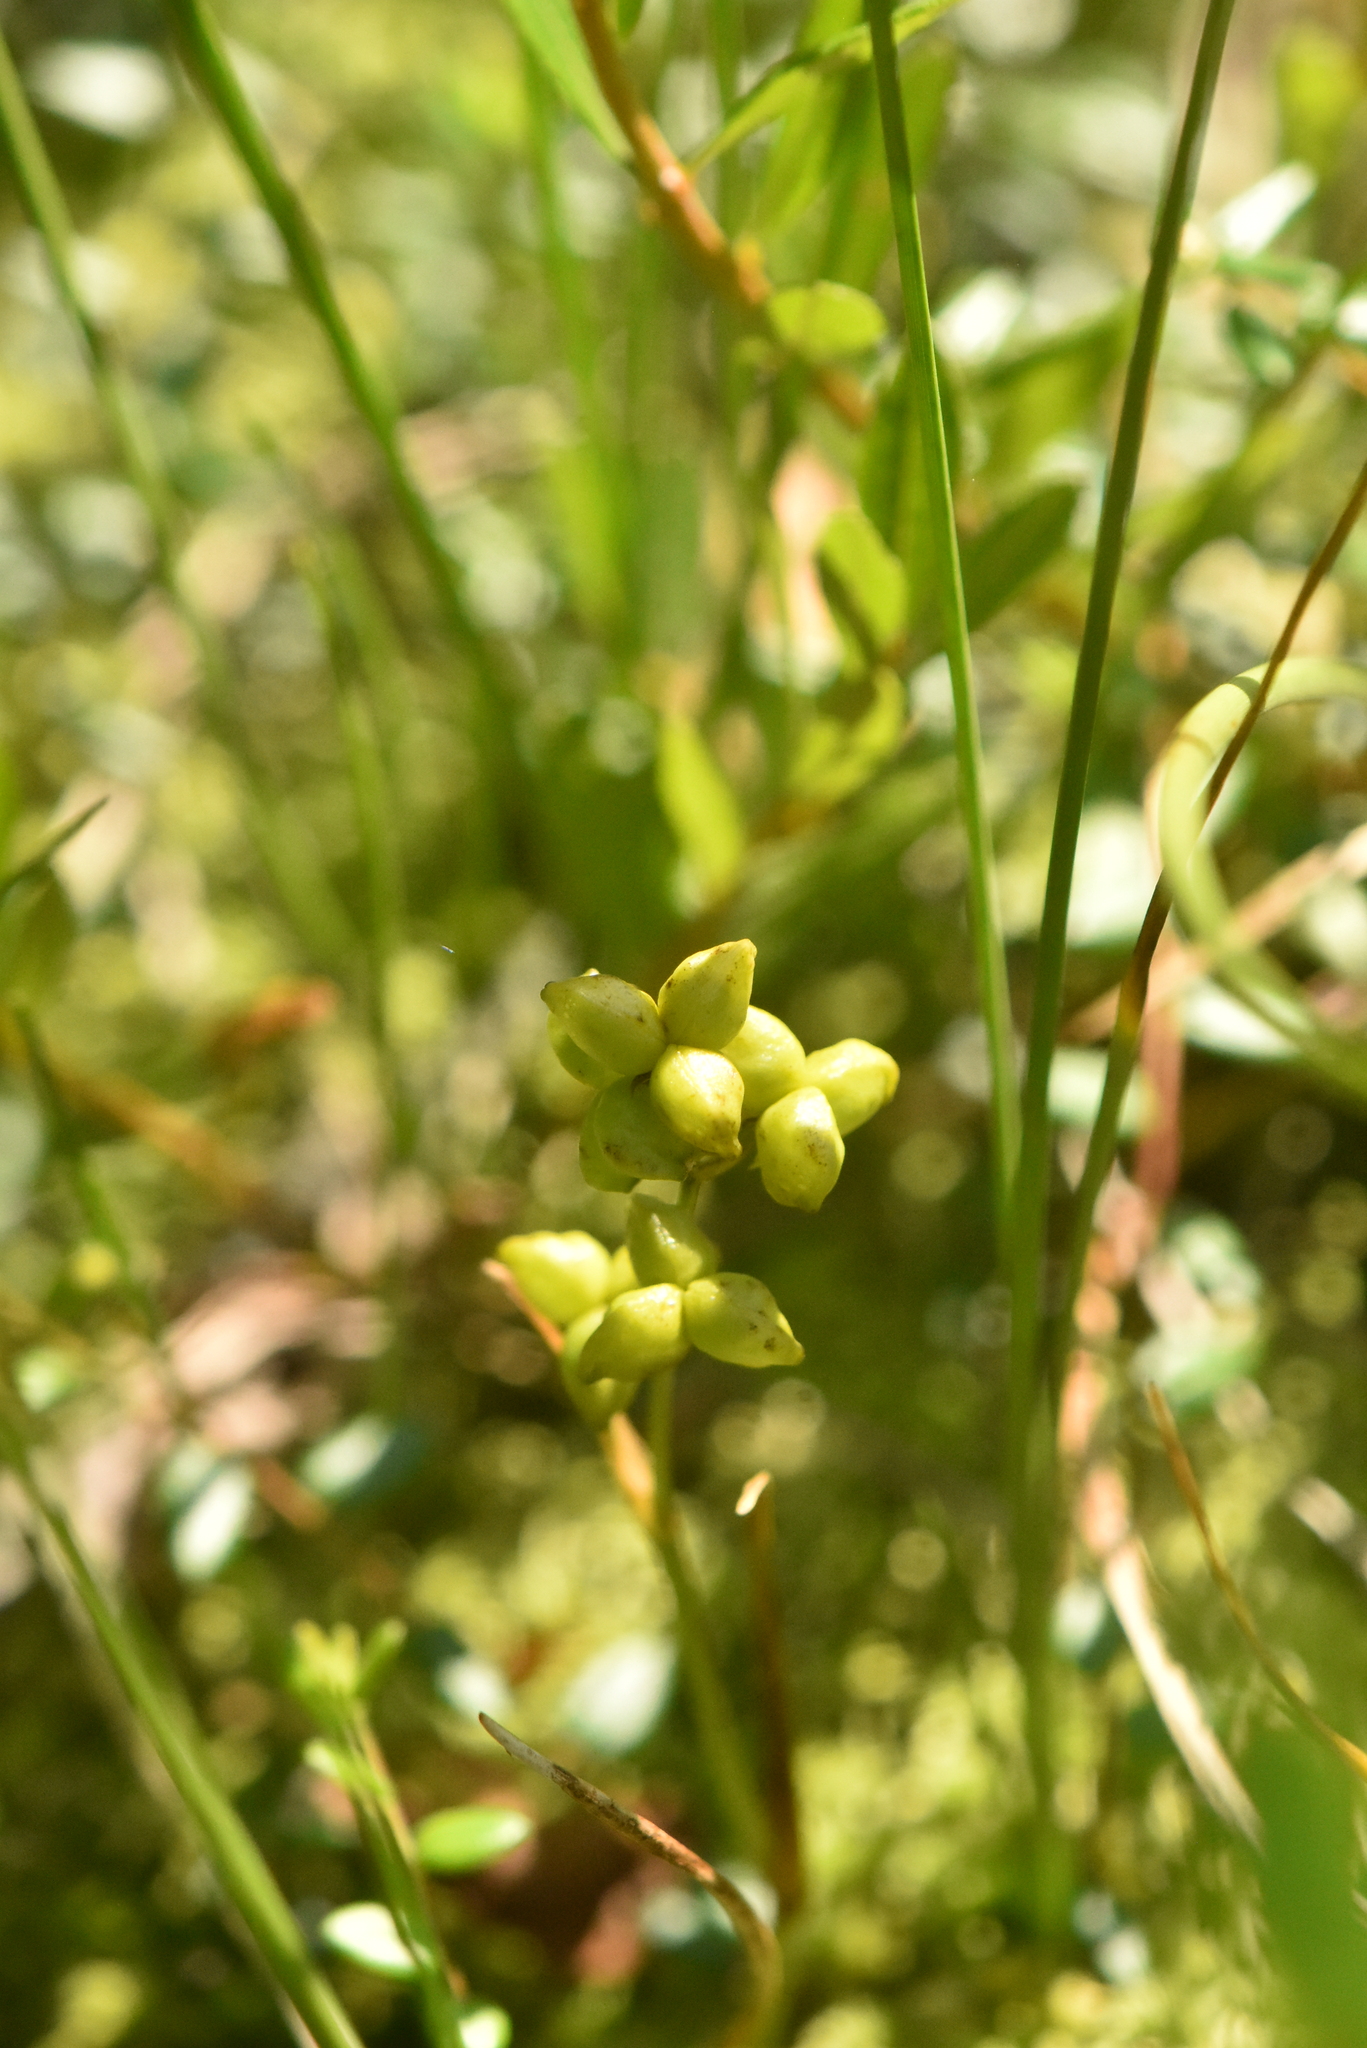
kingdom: Plantae
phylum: Tracheophyta
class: Liliopsida
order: Alismatales
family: Scheuchzeriaceae
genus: Scheuchzeria
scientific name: Scheuchzeria palustris
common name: Rannoch-rush
